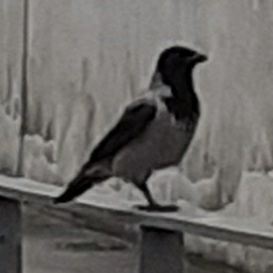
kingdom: Animalia
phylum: Chordata
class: Aves
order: Passeriformes
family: Corvidae
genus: Corvus
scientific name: Corvus cornix
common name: Hooded crow
